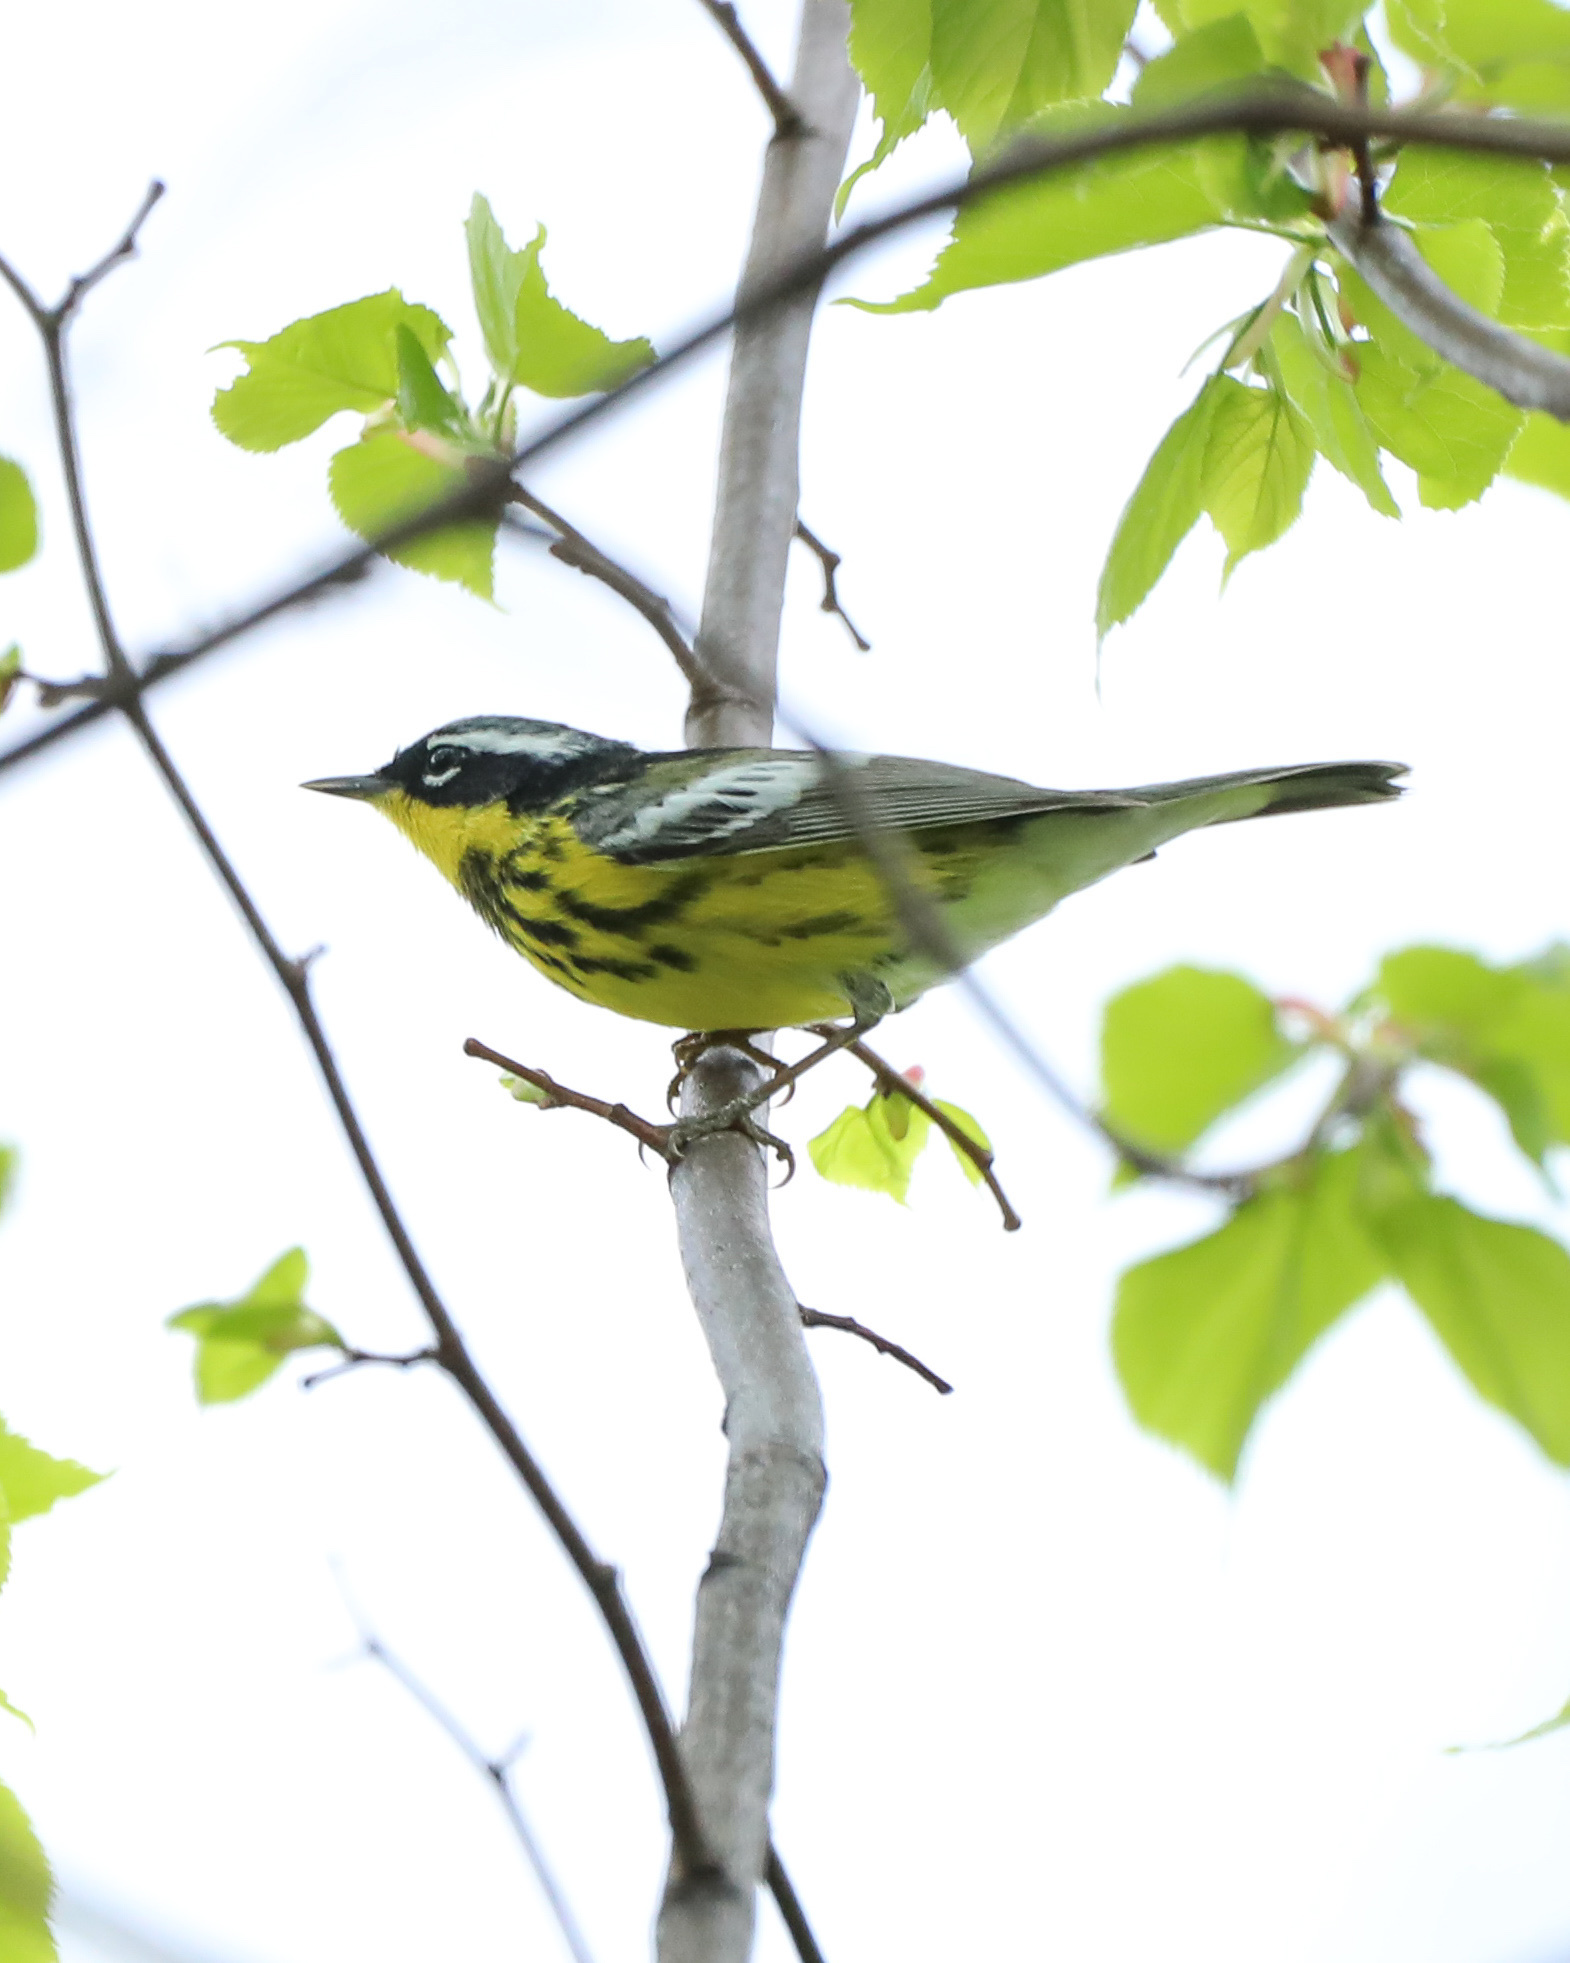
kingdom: Animalia
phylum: Chordata
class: Aves
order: Passeriformes
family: Parulidae
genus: Setophaga
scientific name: Setophaga magnolia
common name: Magnolia warbler
